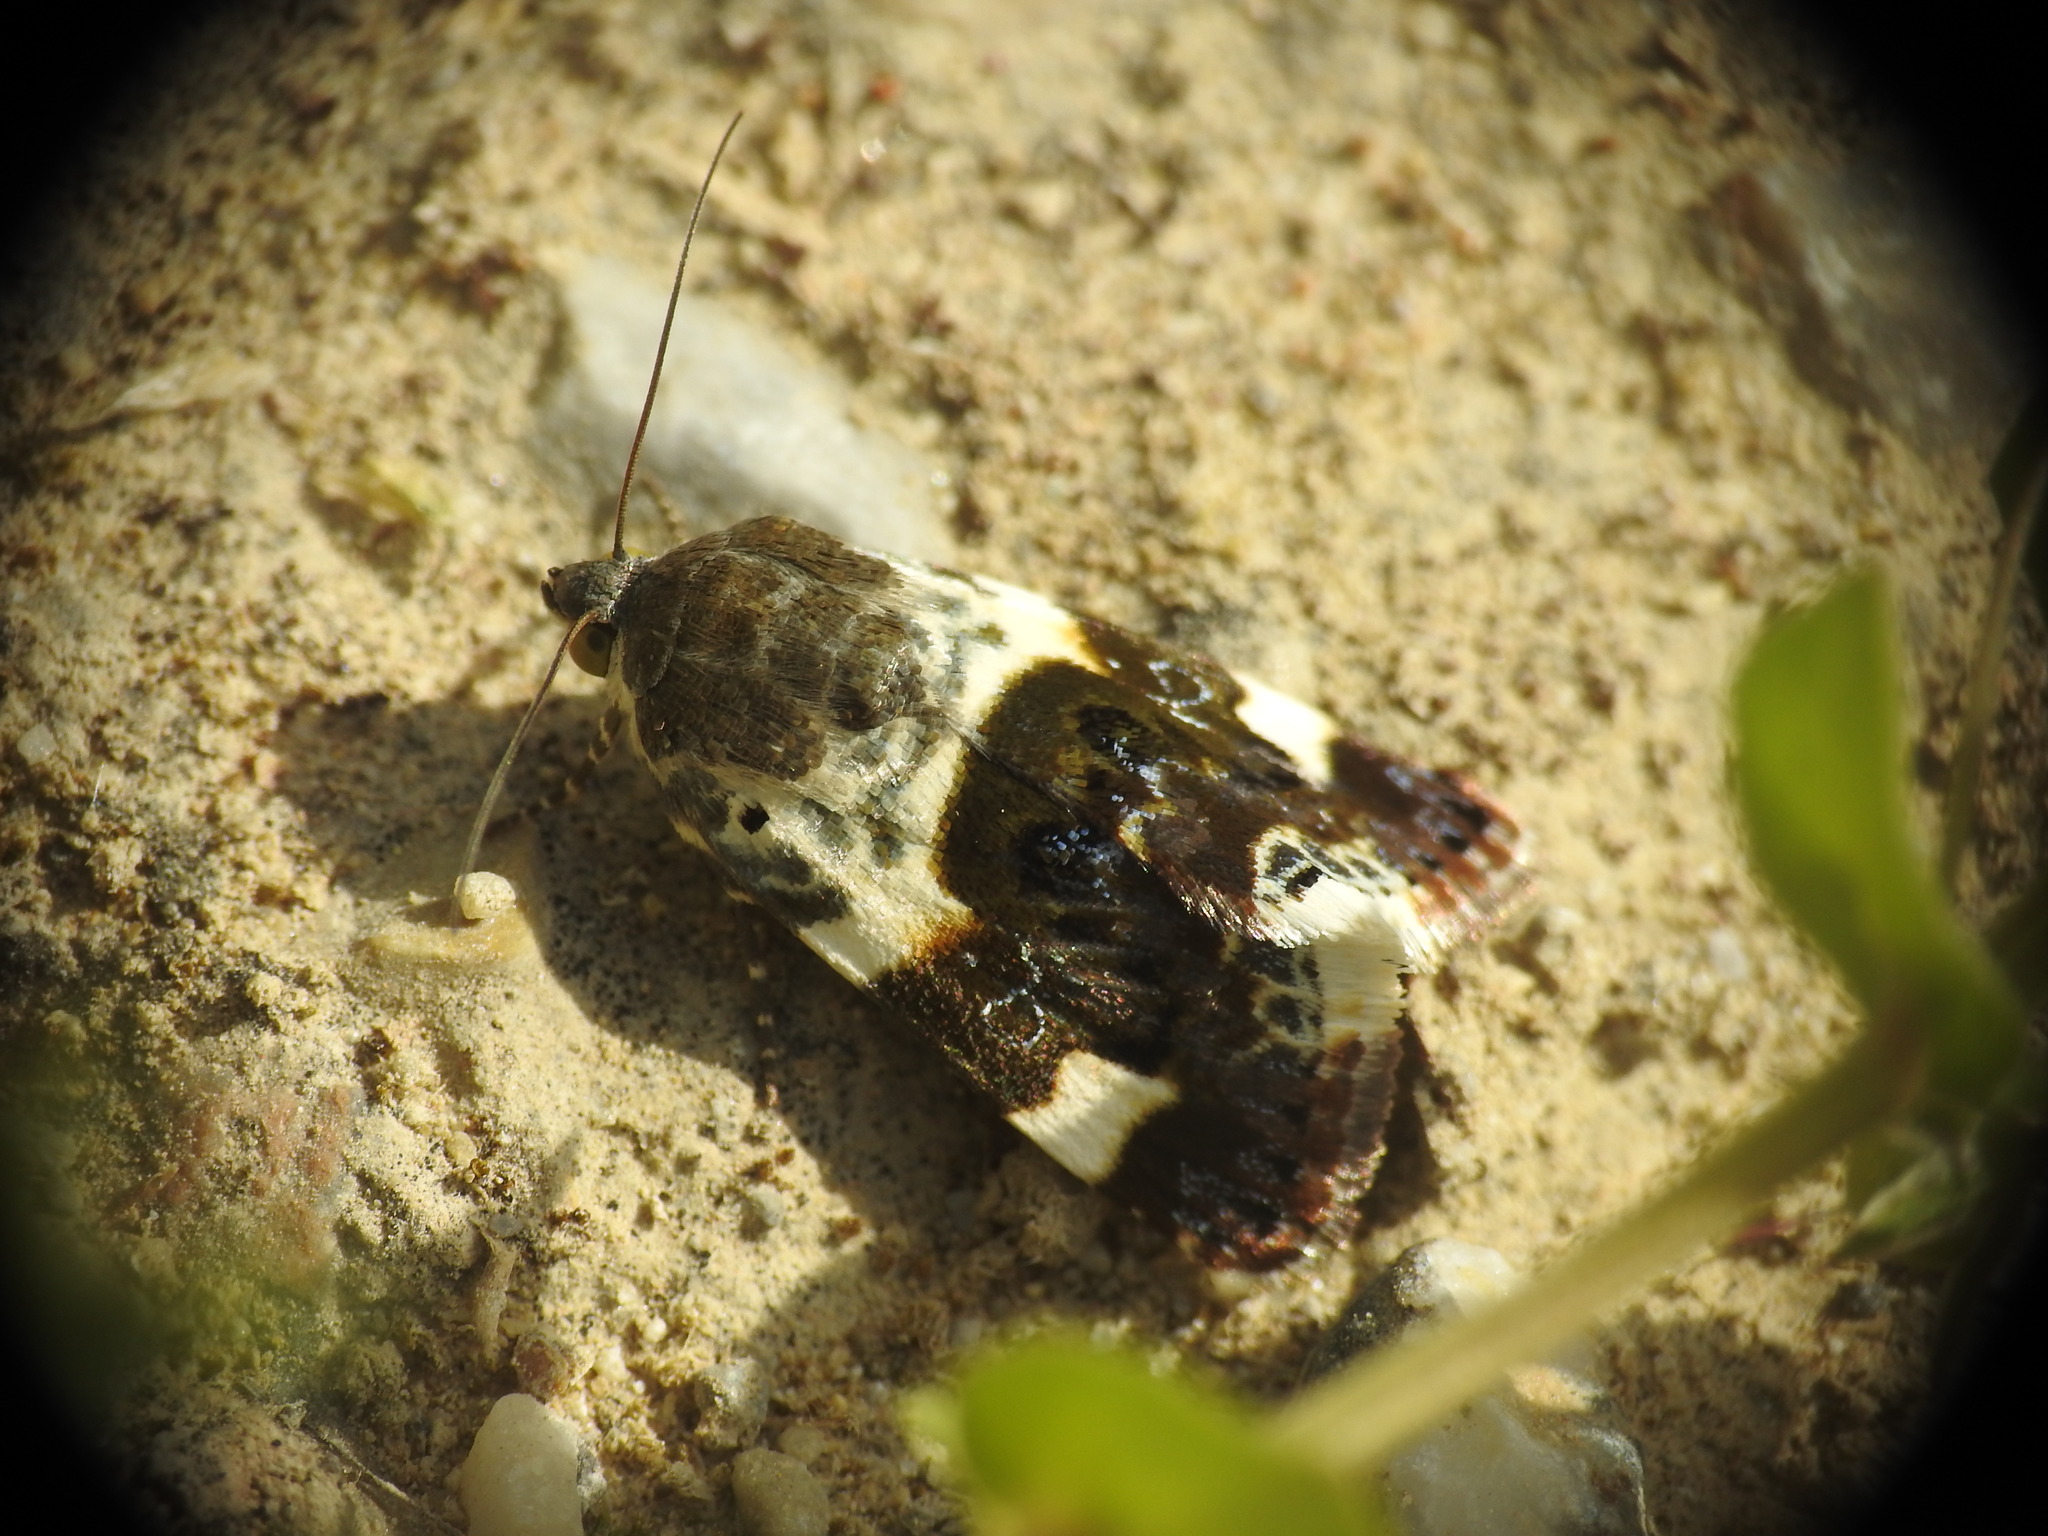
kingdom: Animalia
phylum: Arthropoda
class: Insecta
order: Lepidoptera
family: Noctuidae
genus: Acontia
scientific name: Acontia lucida
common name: Pale shoulder
